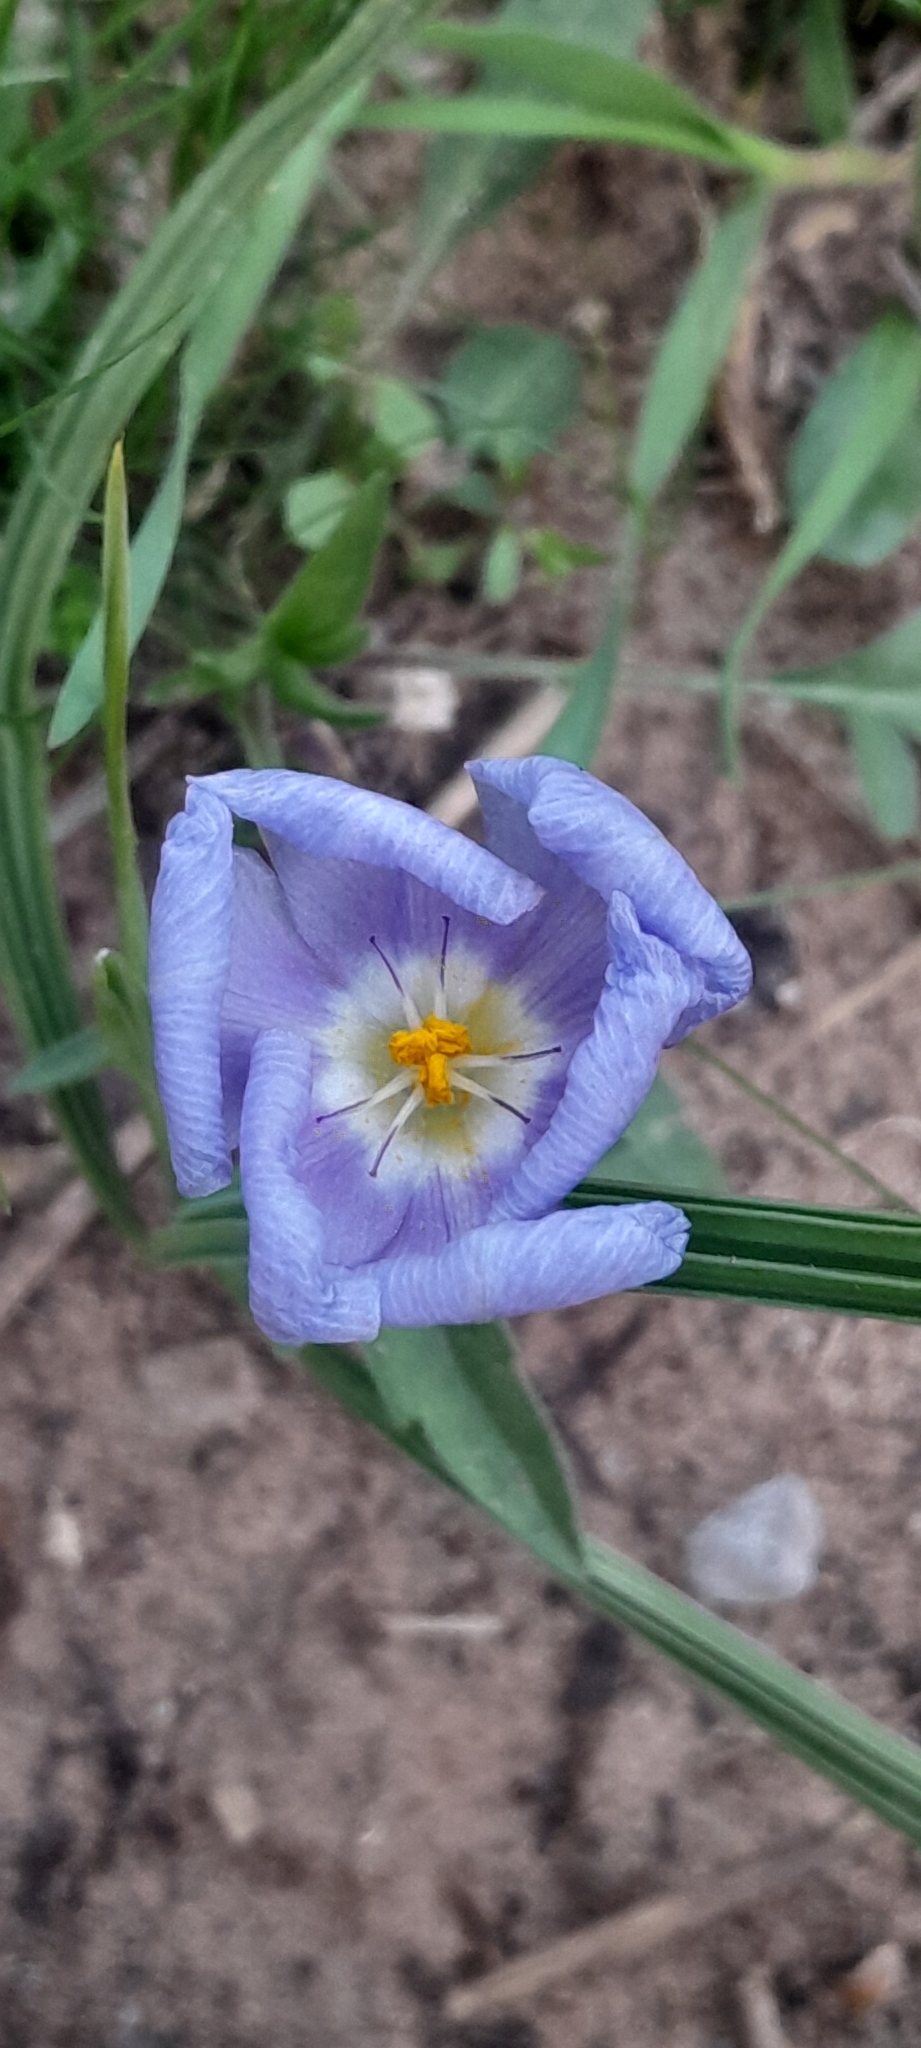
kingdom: Plantae
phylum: Tracheophyta
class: Liliopsida
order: Asparagales
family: Iridaceae
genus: Nemastylis
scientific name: Nemastylis geminiflora
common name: Prairie celestial
